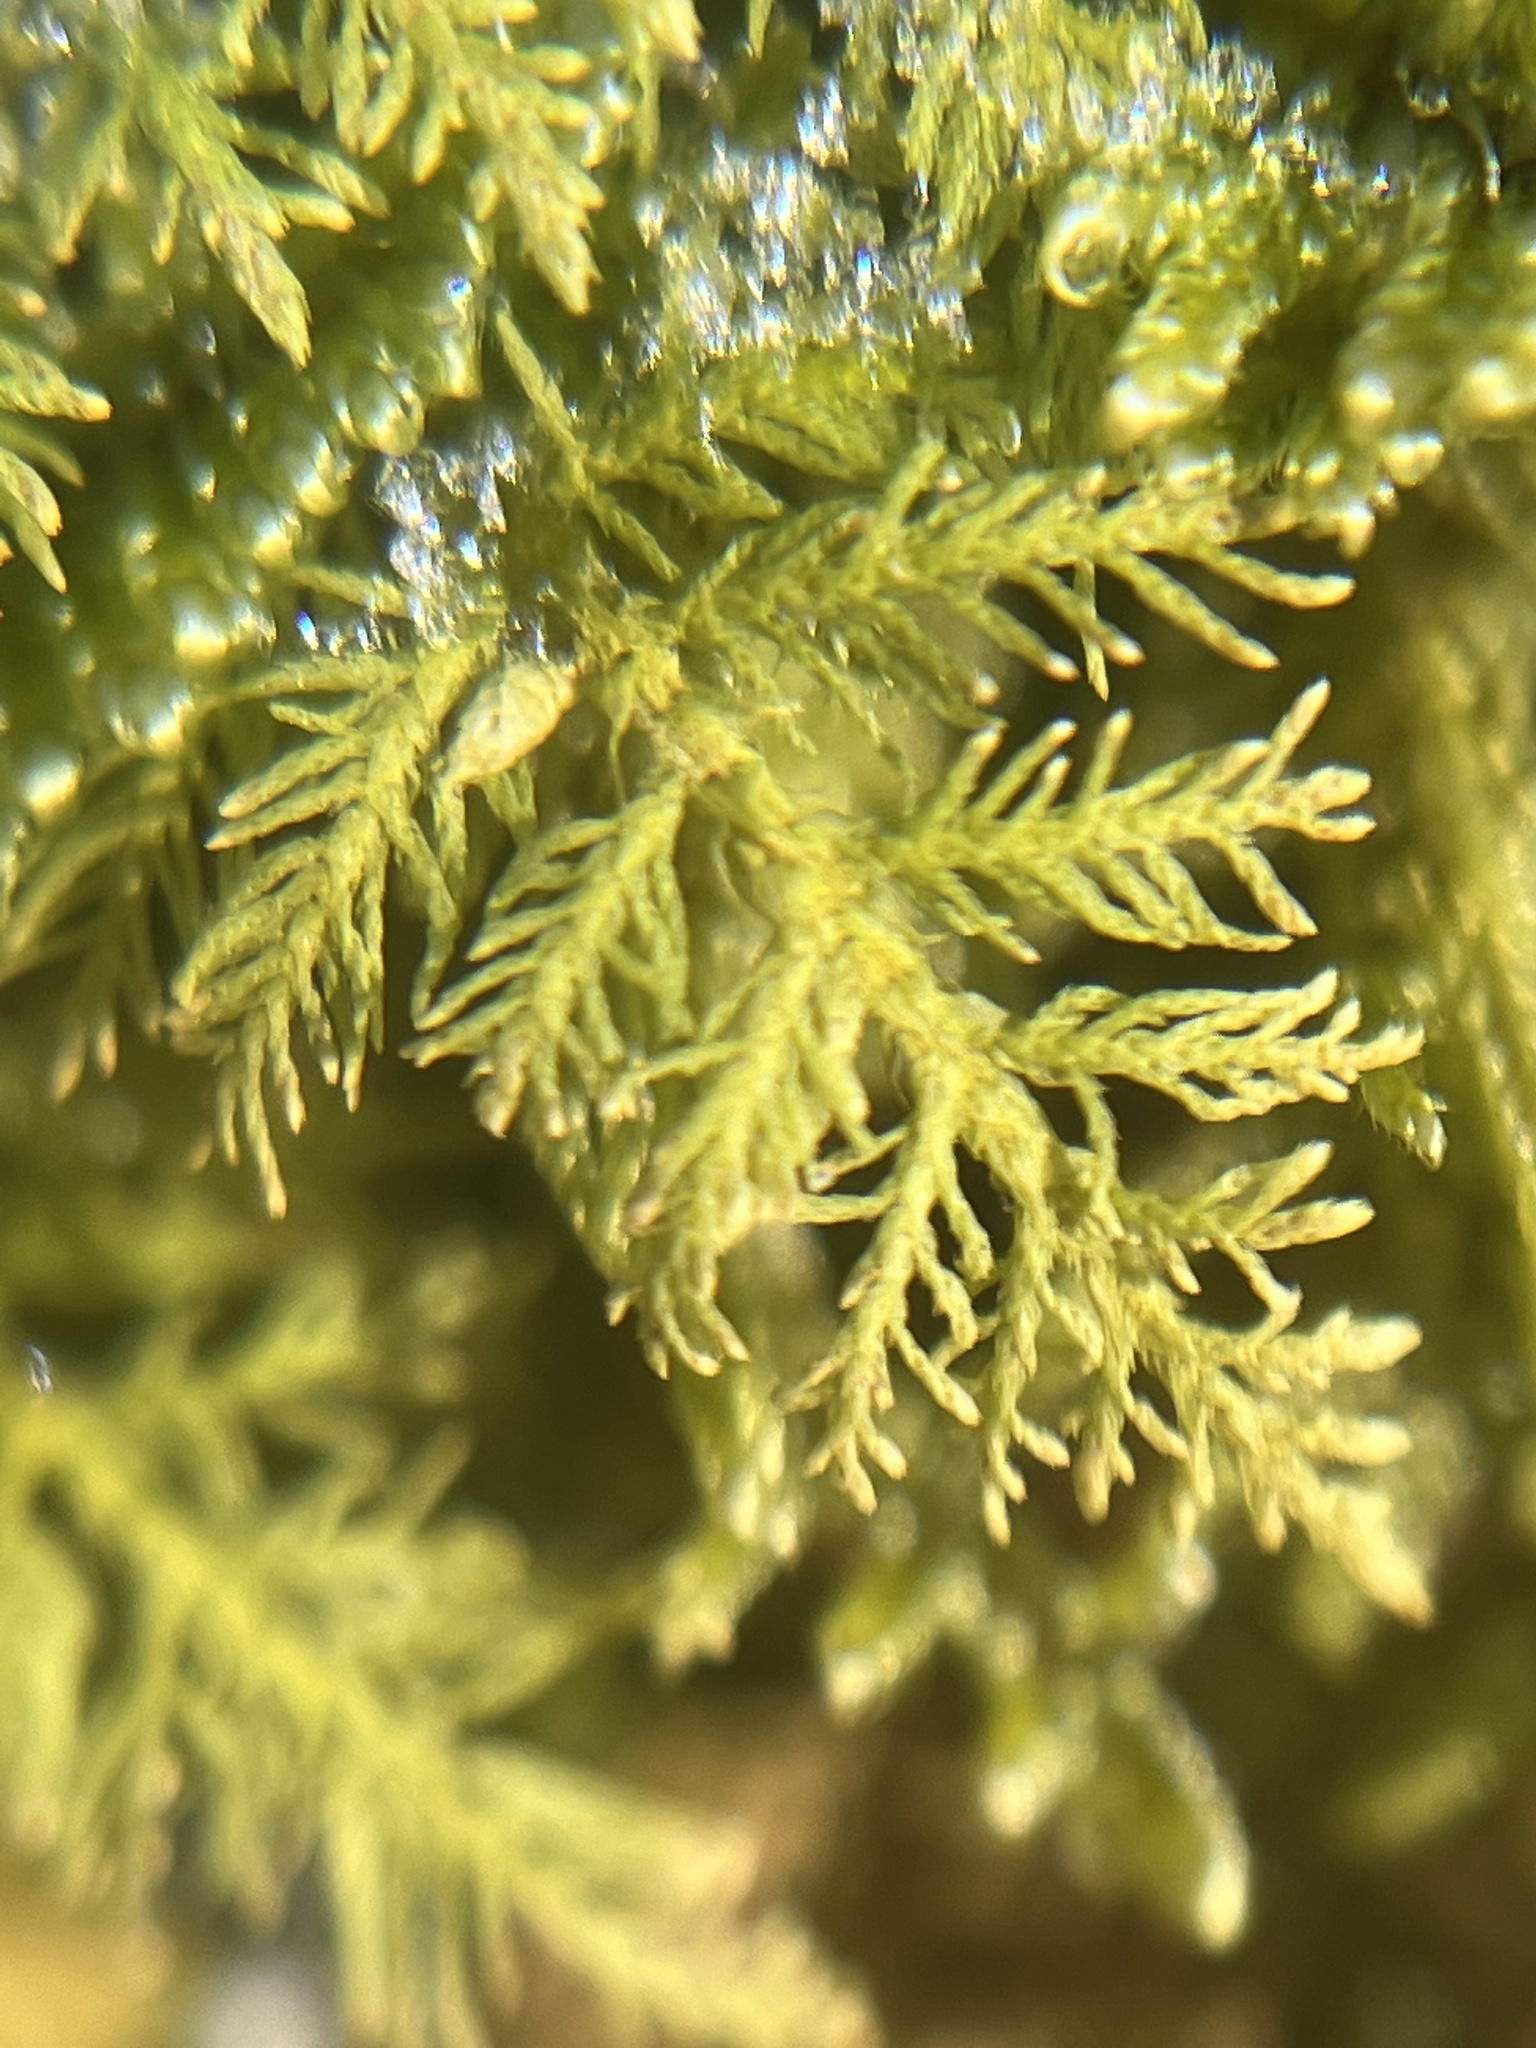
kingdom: Plantae
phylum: Bryophyta
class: Bryopsida
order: Hypnales
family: Thuidiaceae
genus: Thuidium
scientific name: Thuidium delicatulum
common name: Delicate fern moss
